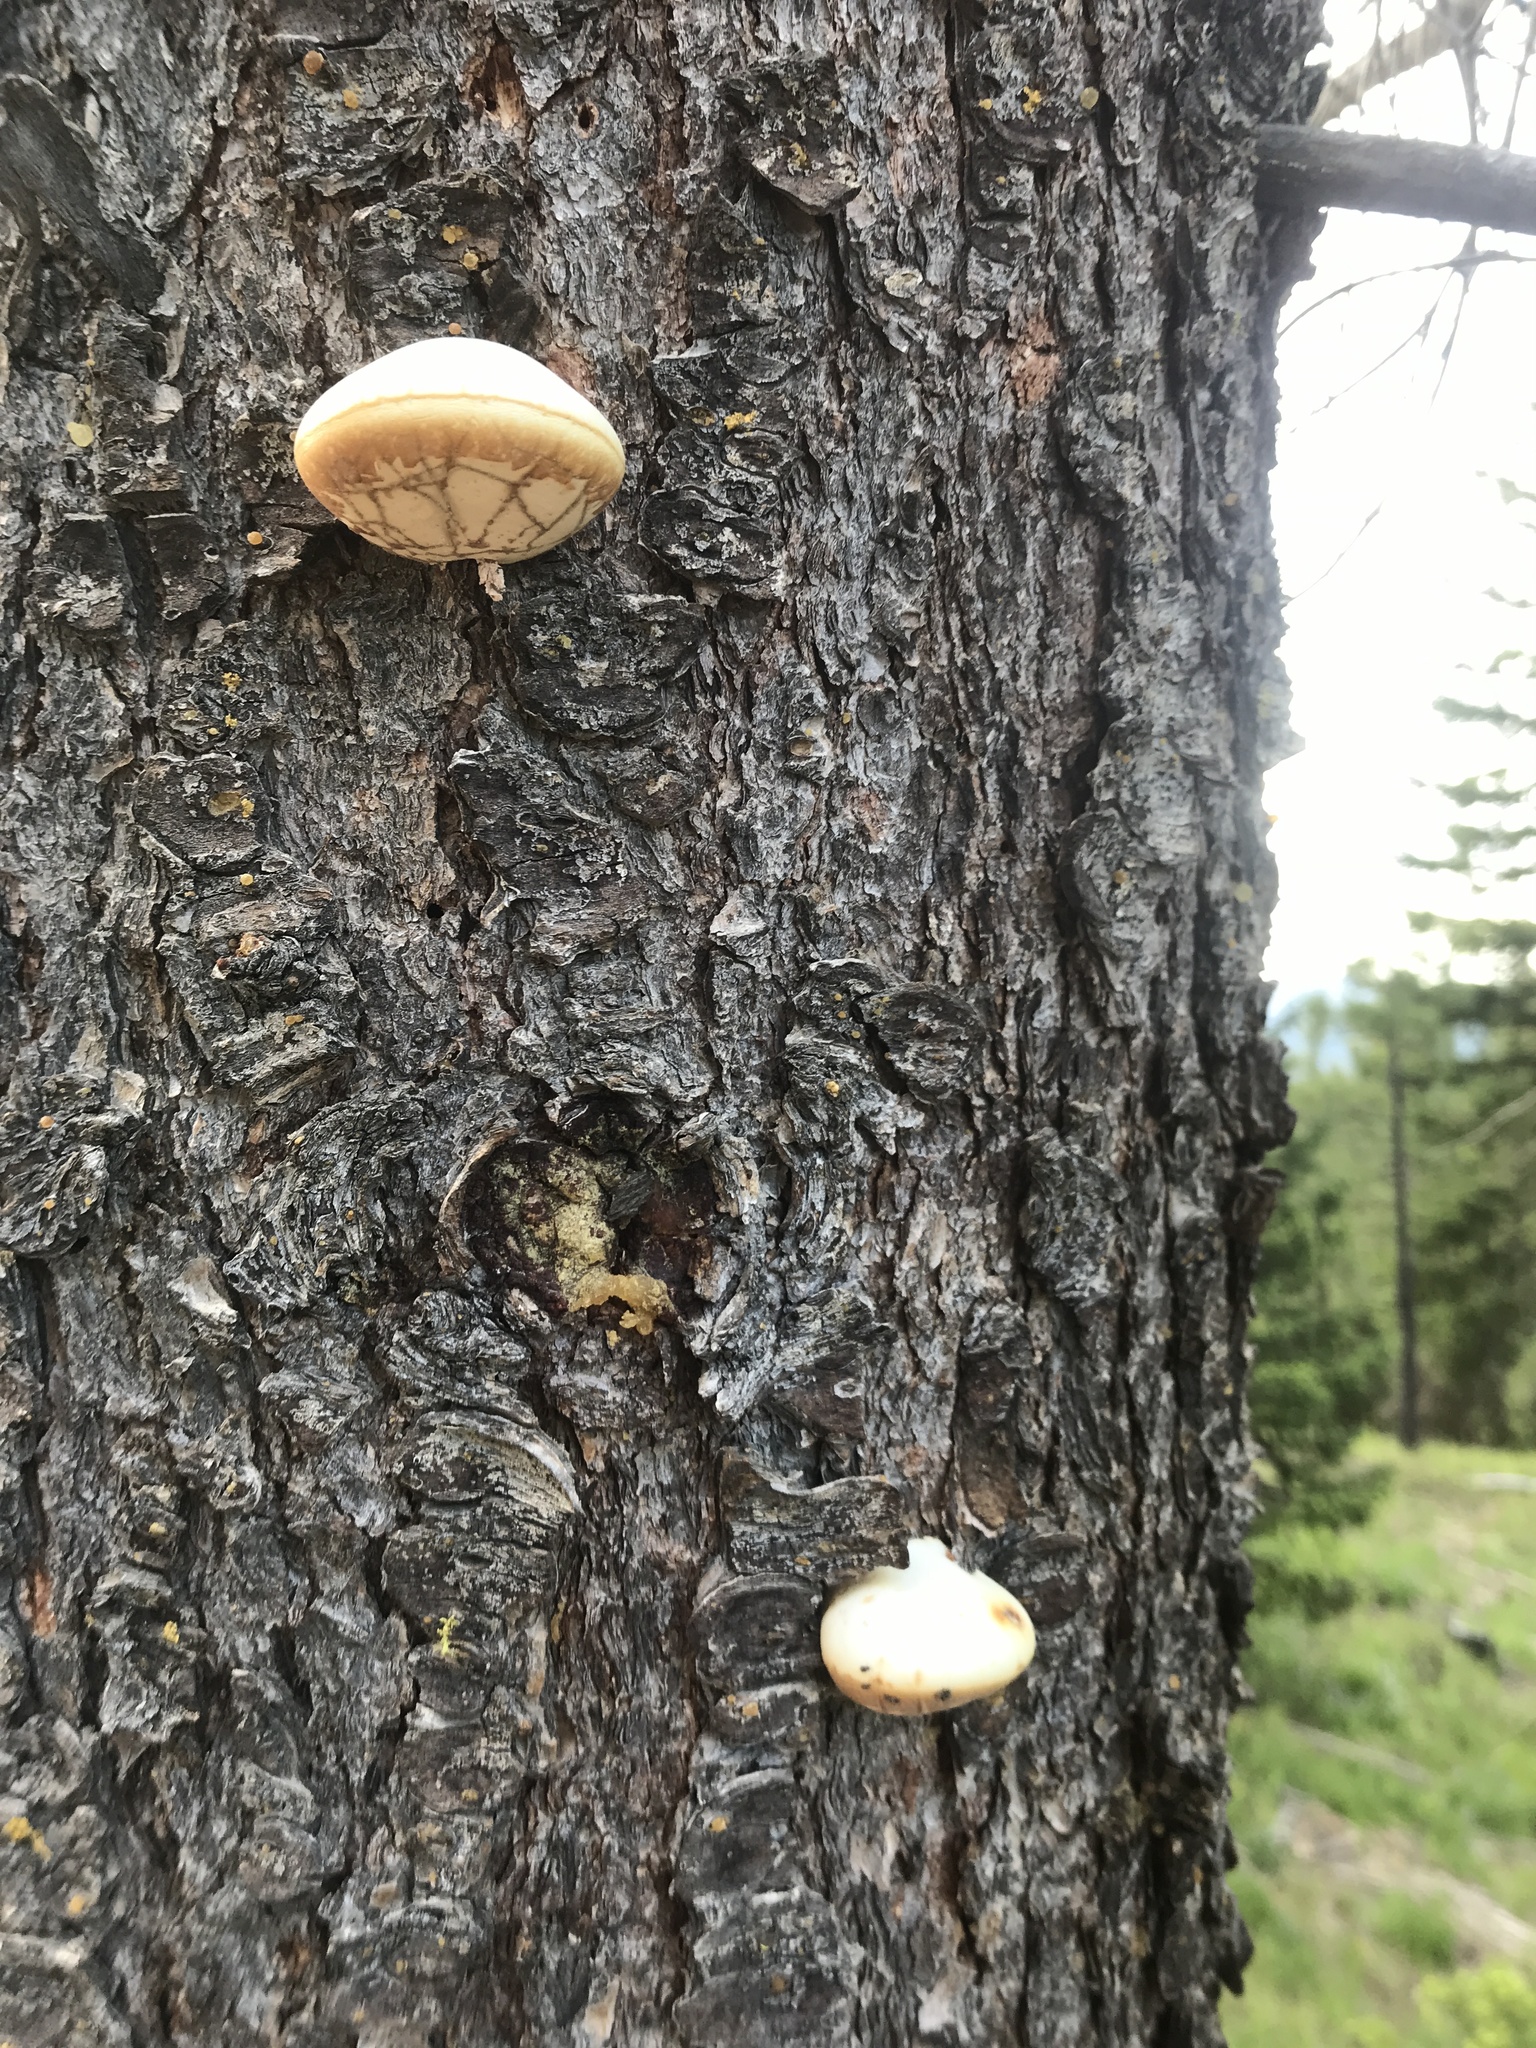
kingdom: Fungi
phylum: Basidiomycota
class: Agaricomycetes
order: Polyporales
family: Polyporaceae
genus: Cryptoporus
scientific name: Cryptoporus volvatus
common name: Veiled polypore
